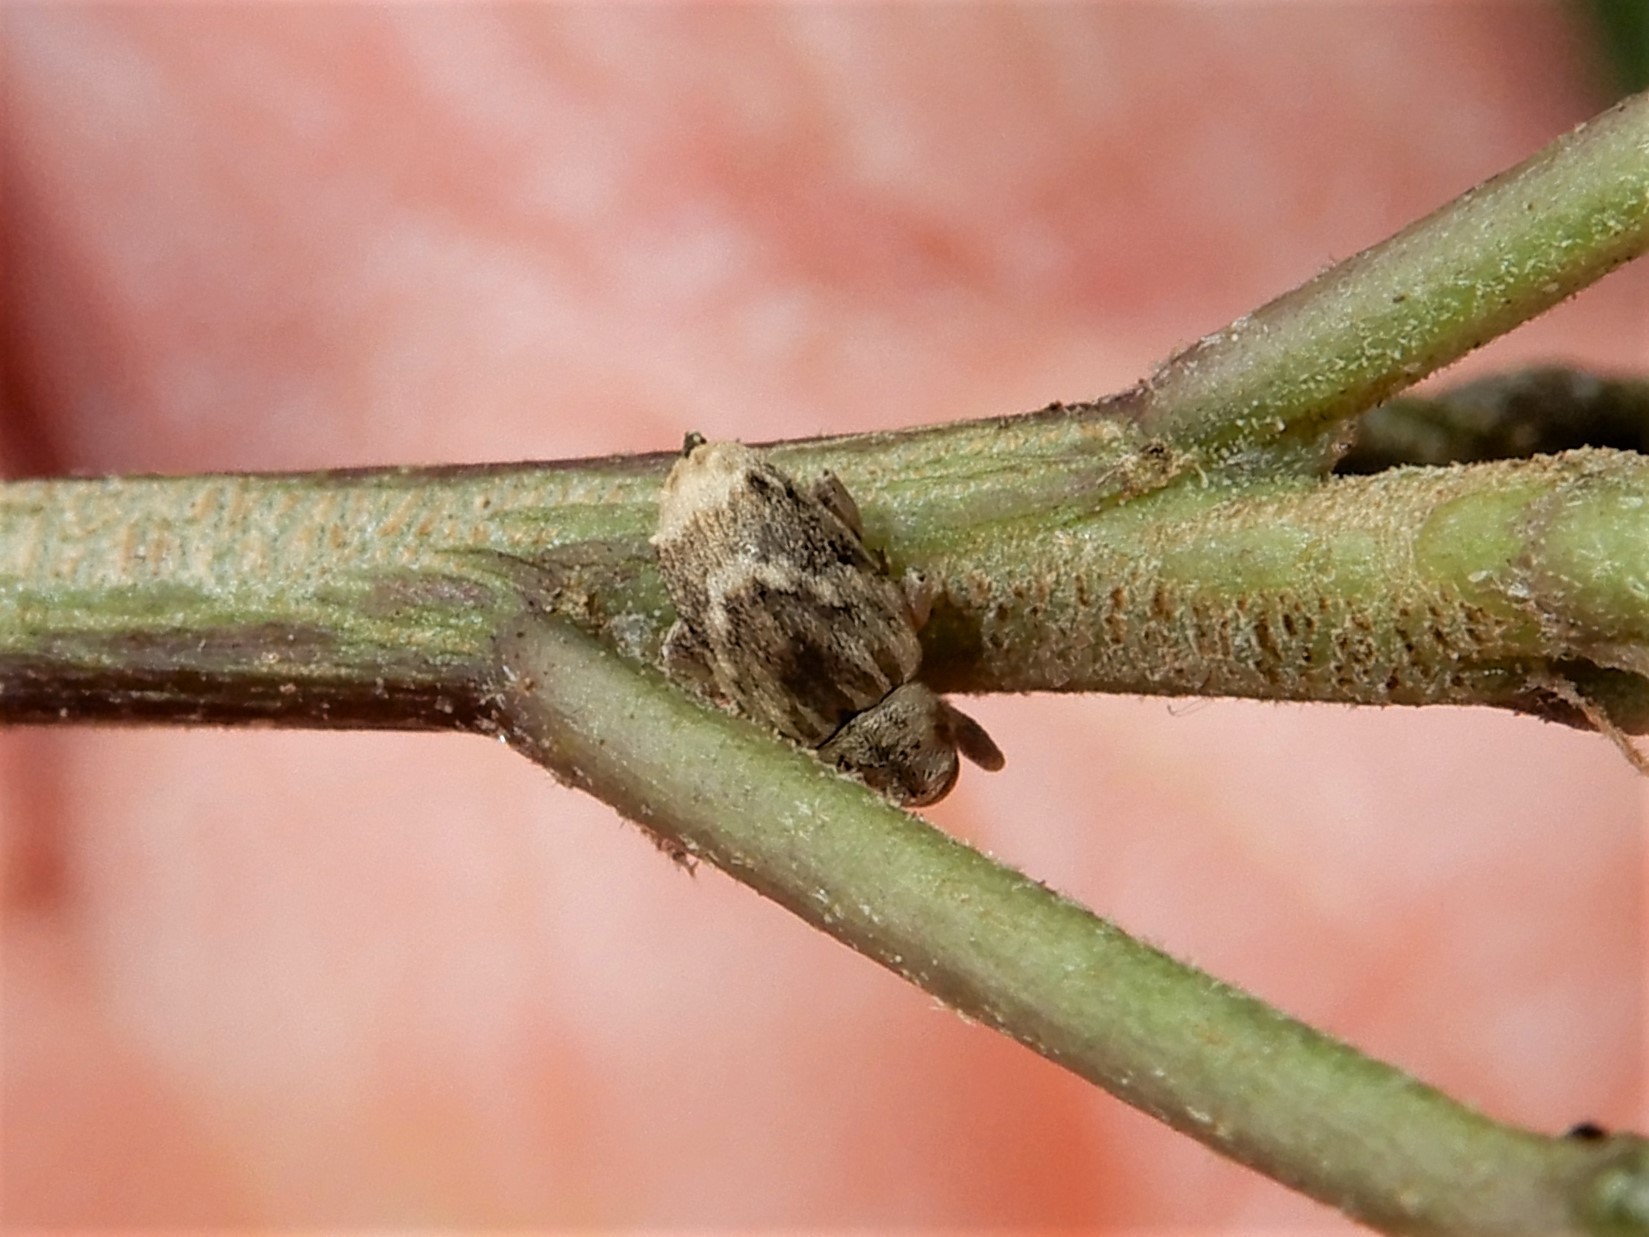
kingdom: Animalia
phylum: Arthropoda
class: Insecta
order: Coleoptera
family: Curculionidae
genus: Aneuma
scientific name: Aneuma compta
